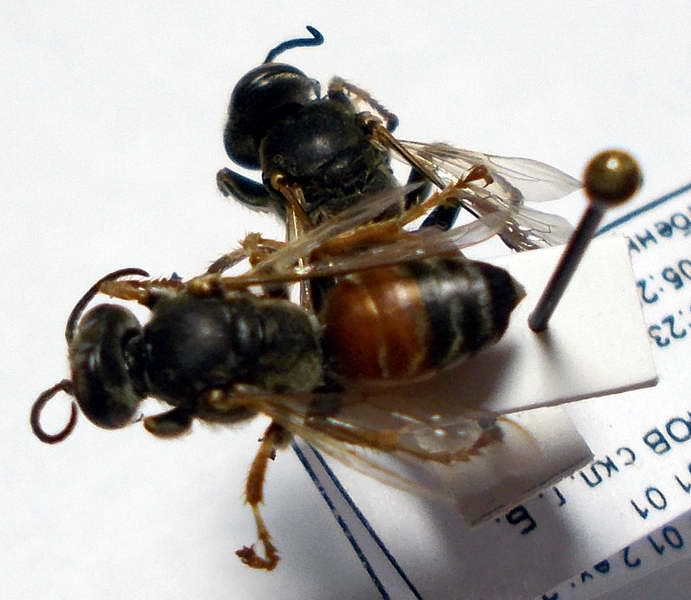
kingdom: Animalia
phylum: Arthropoda
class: Insecta
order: Hymenoptera
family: Crabronidae
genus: Tachytes
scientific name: Tachytes obsoletus
